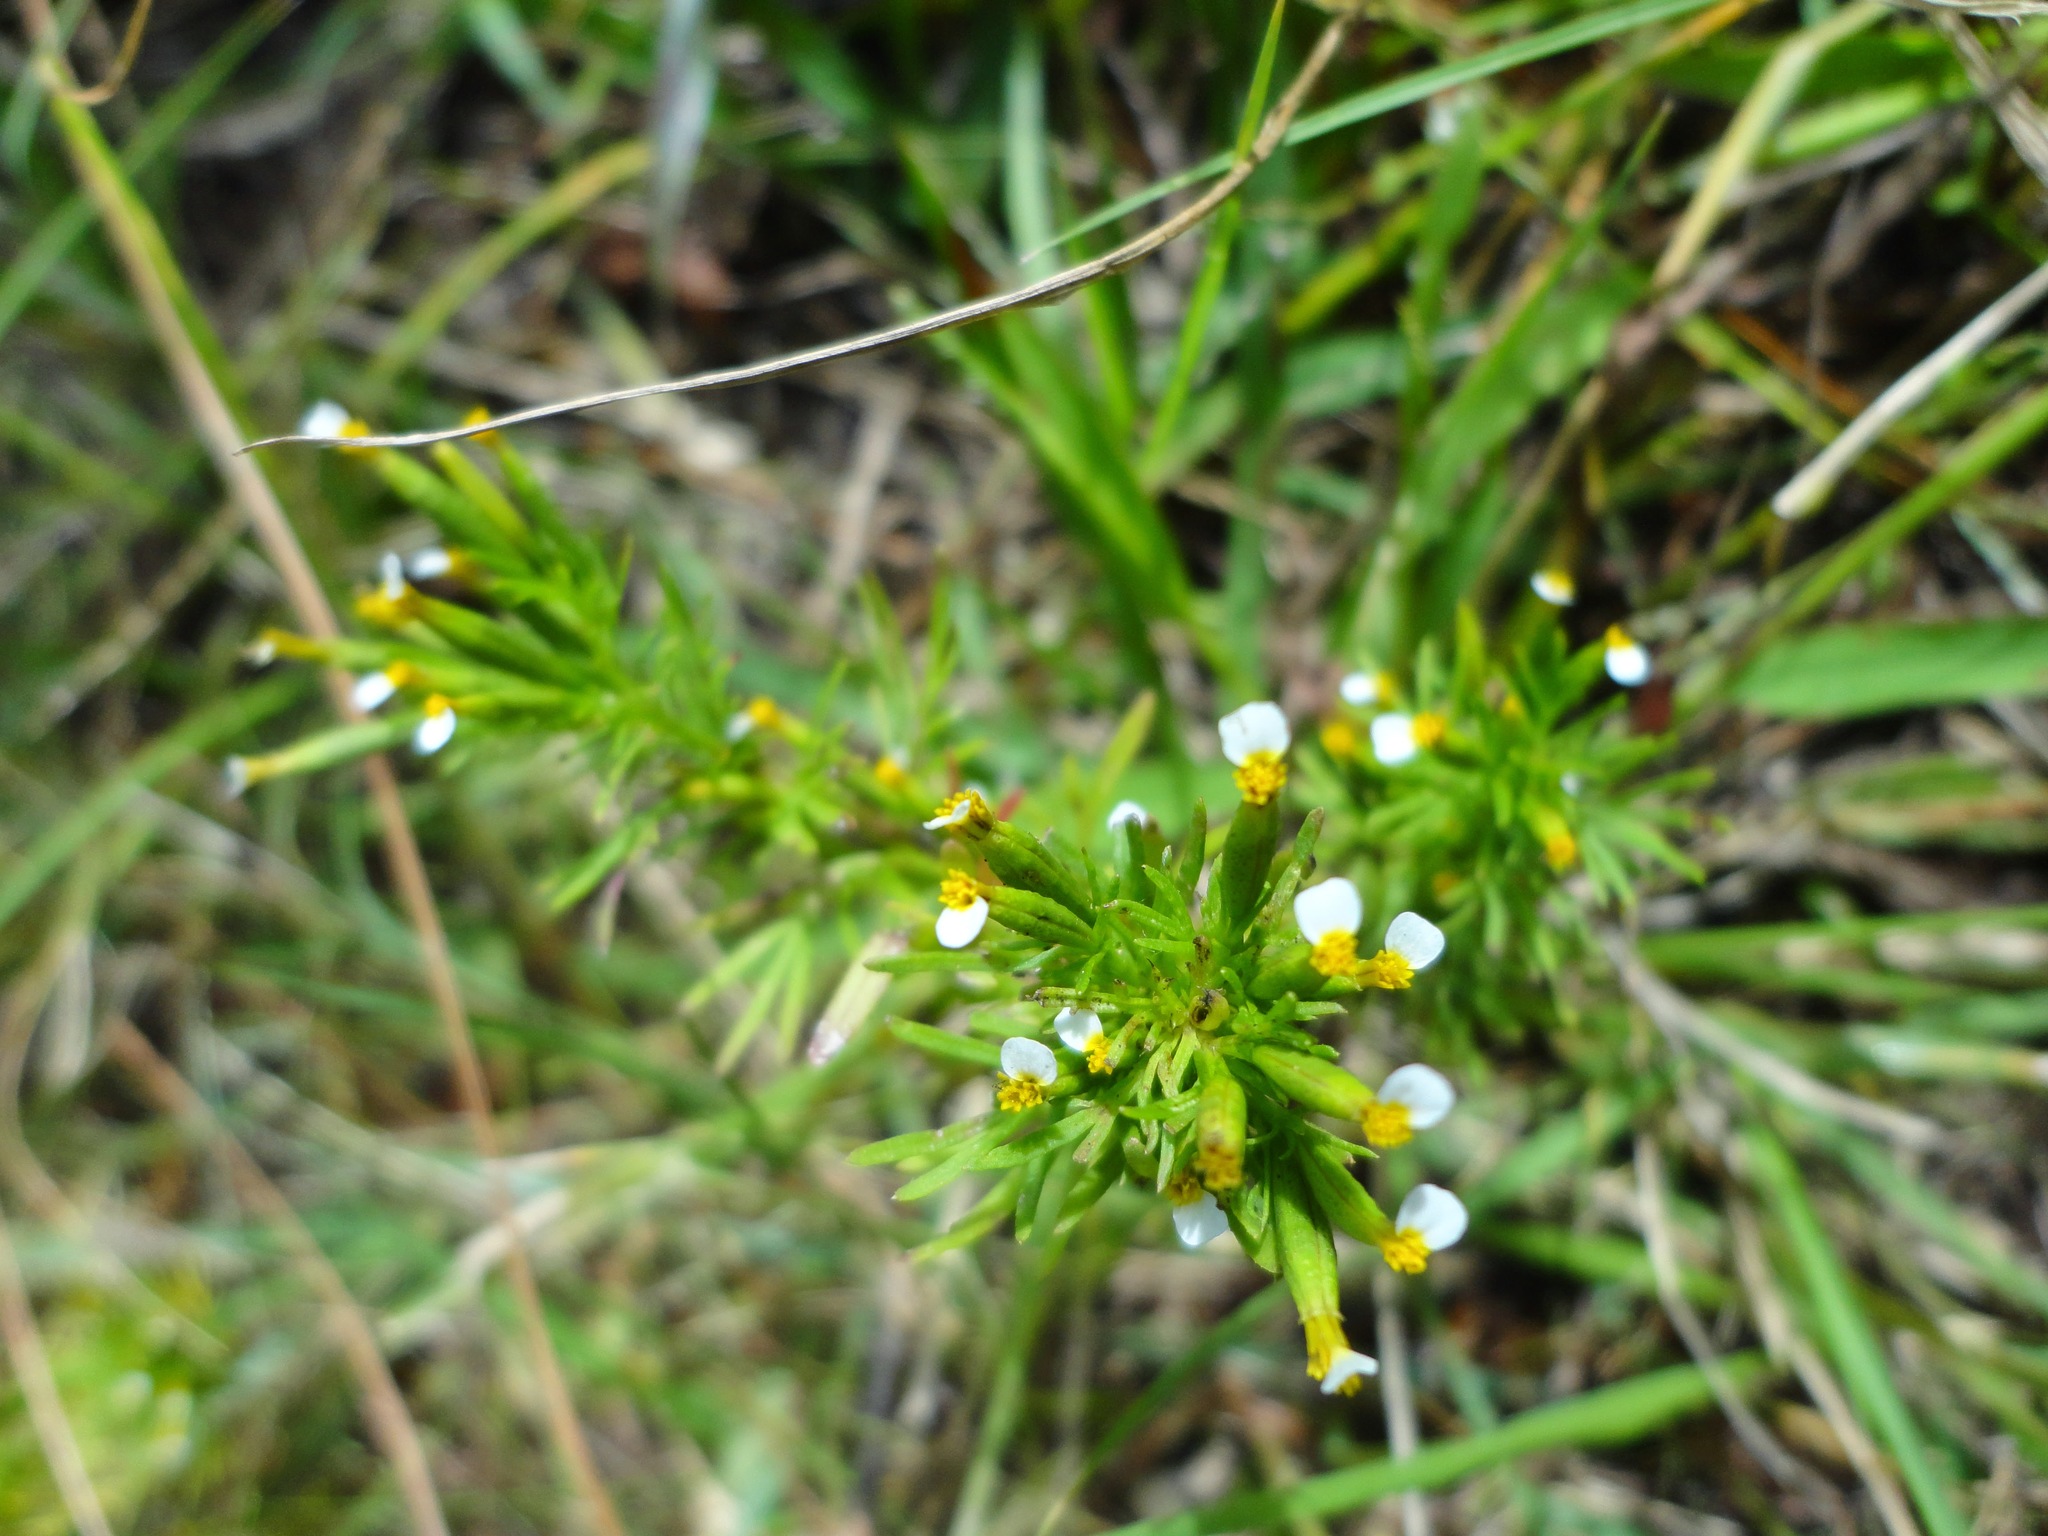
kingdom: Plantae
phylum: Tracheophyta
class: Magnoliopsida
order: Asterales
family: Asteraceae
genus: Tagetes
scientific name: Tagetes filifolia
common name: Lesser marigold
